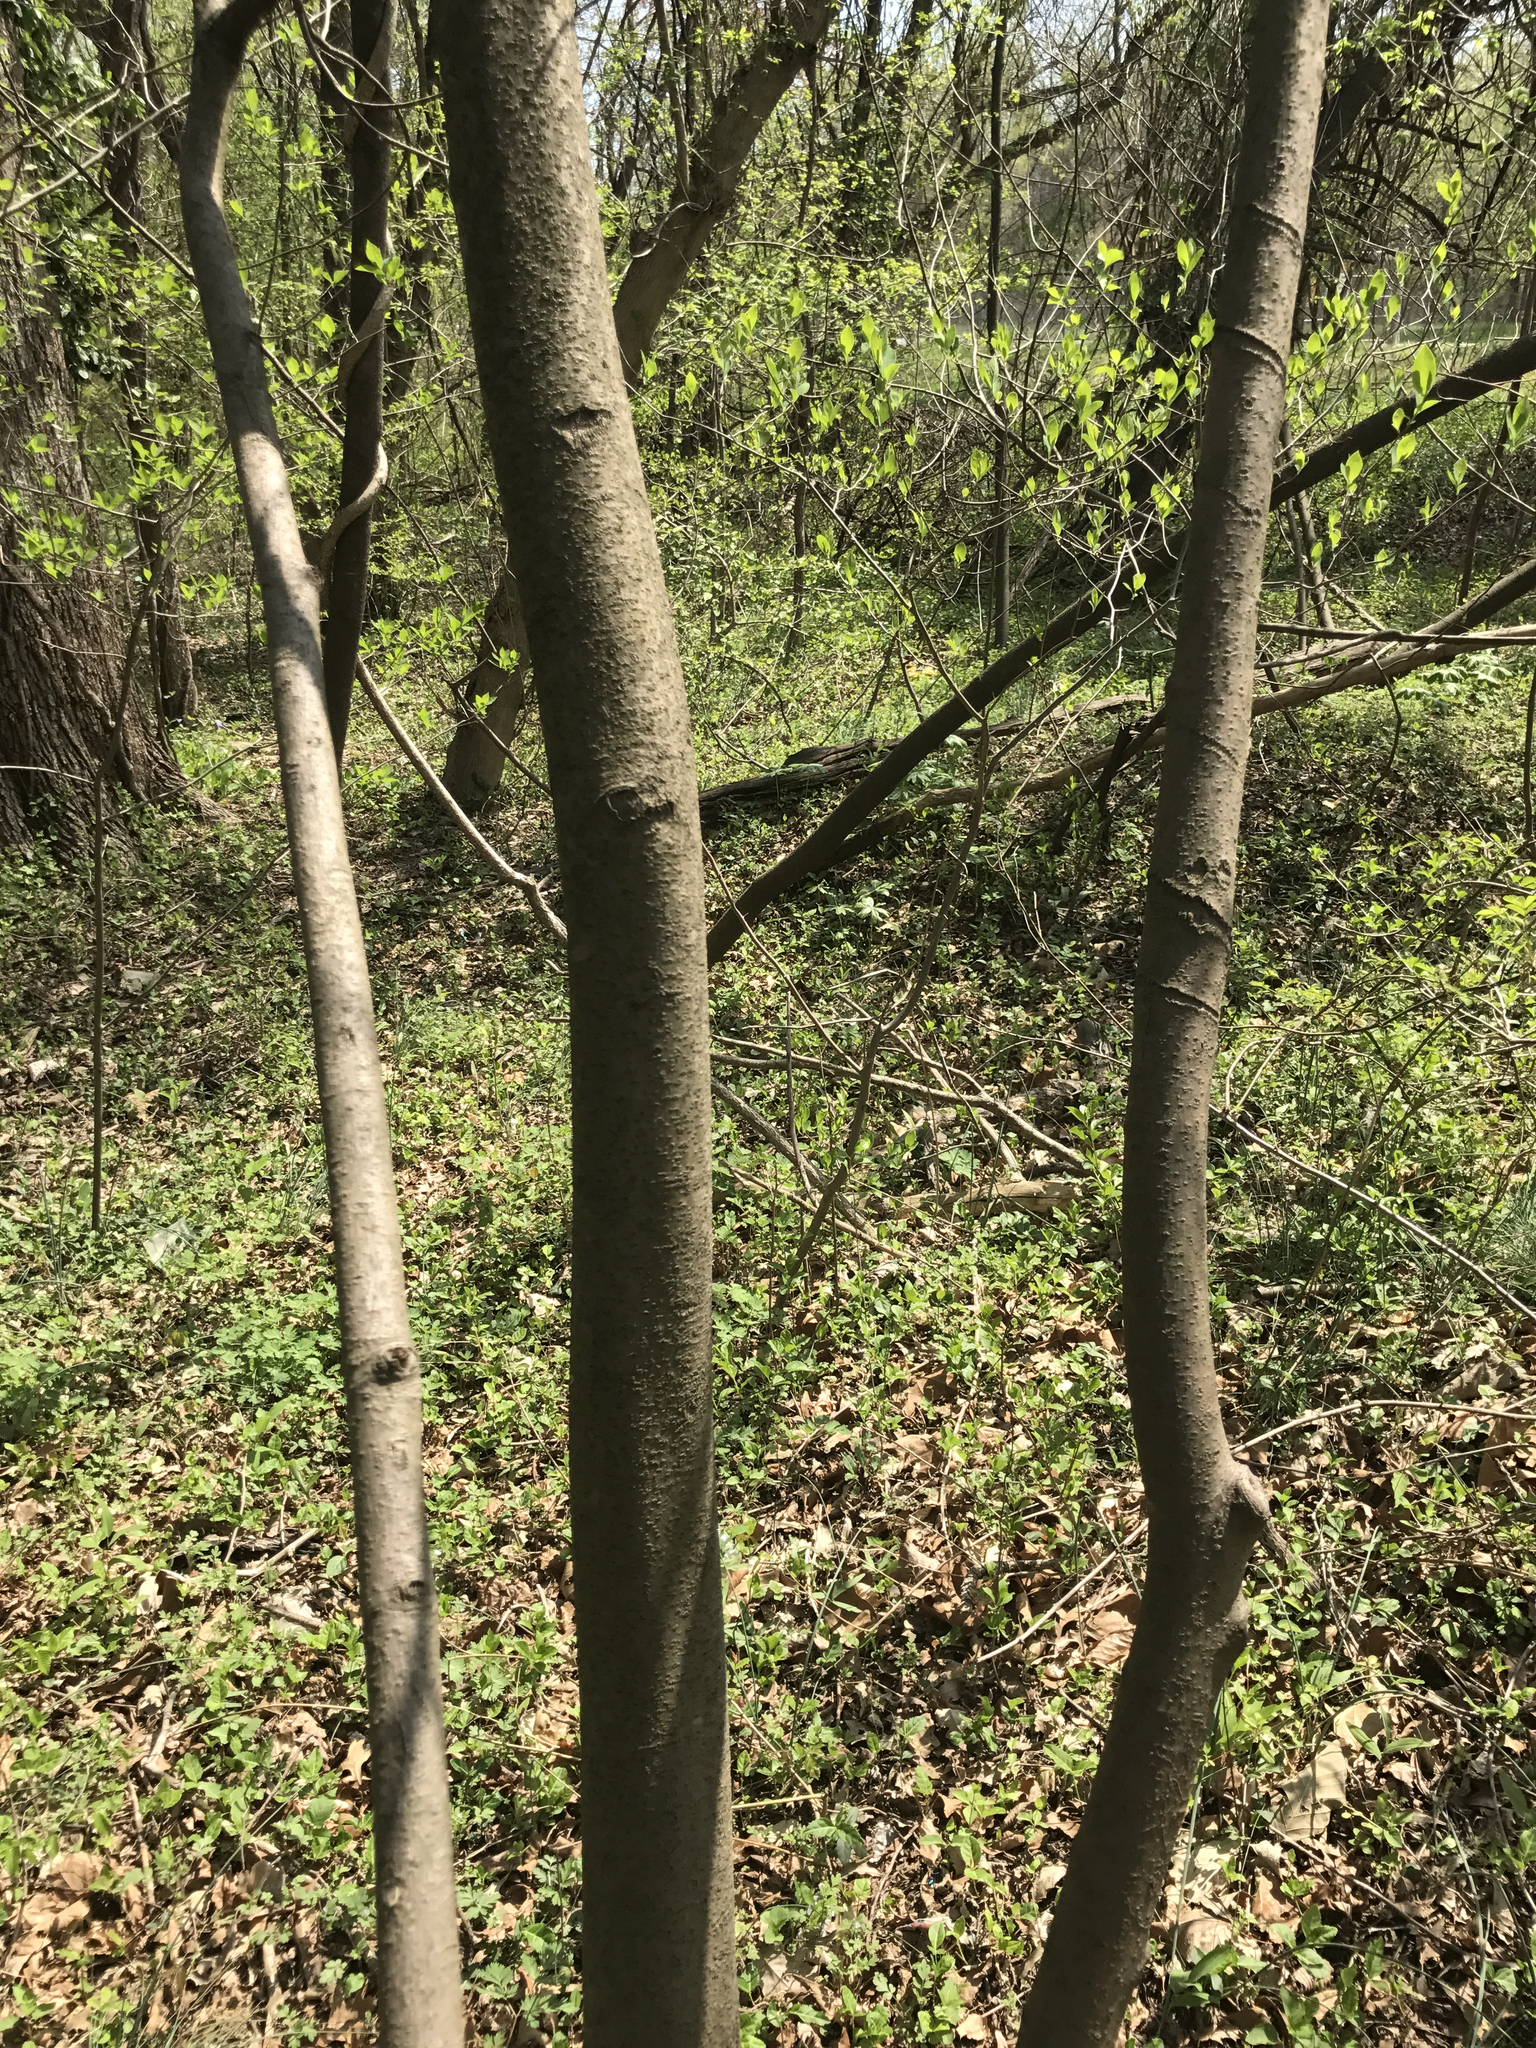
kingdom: Plantae
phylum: Tracheophyta
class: Magnoliopsida
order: Magnoliales
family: Annonaceae
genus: Asimina
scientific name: Asimina triloba
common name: Dog-banana
